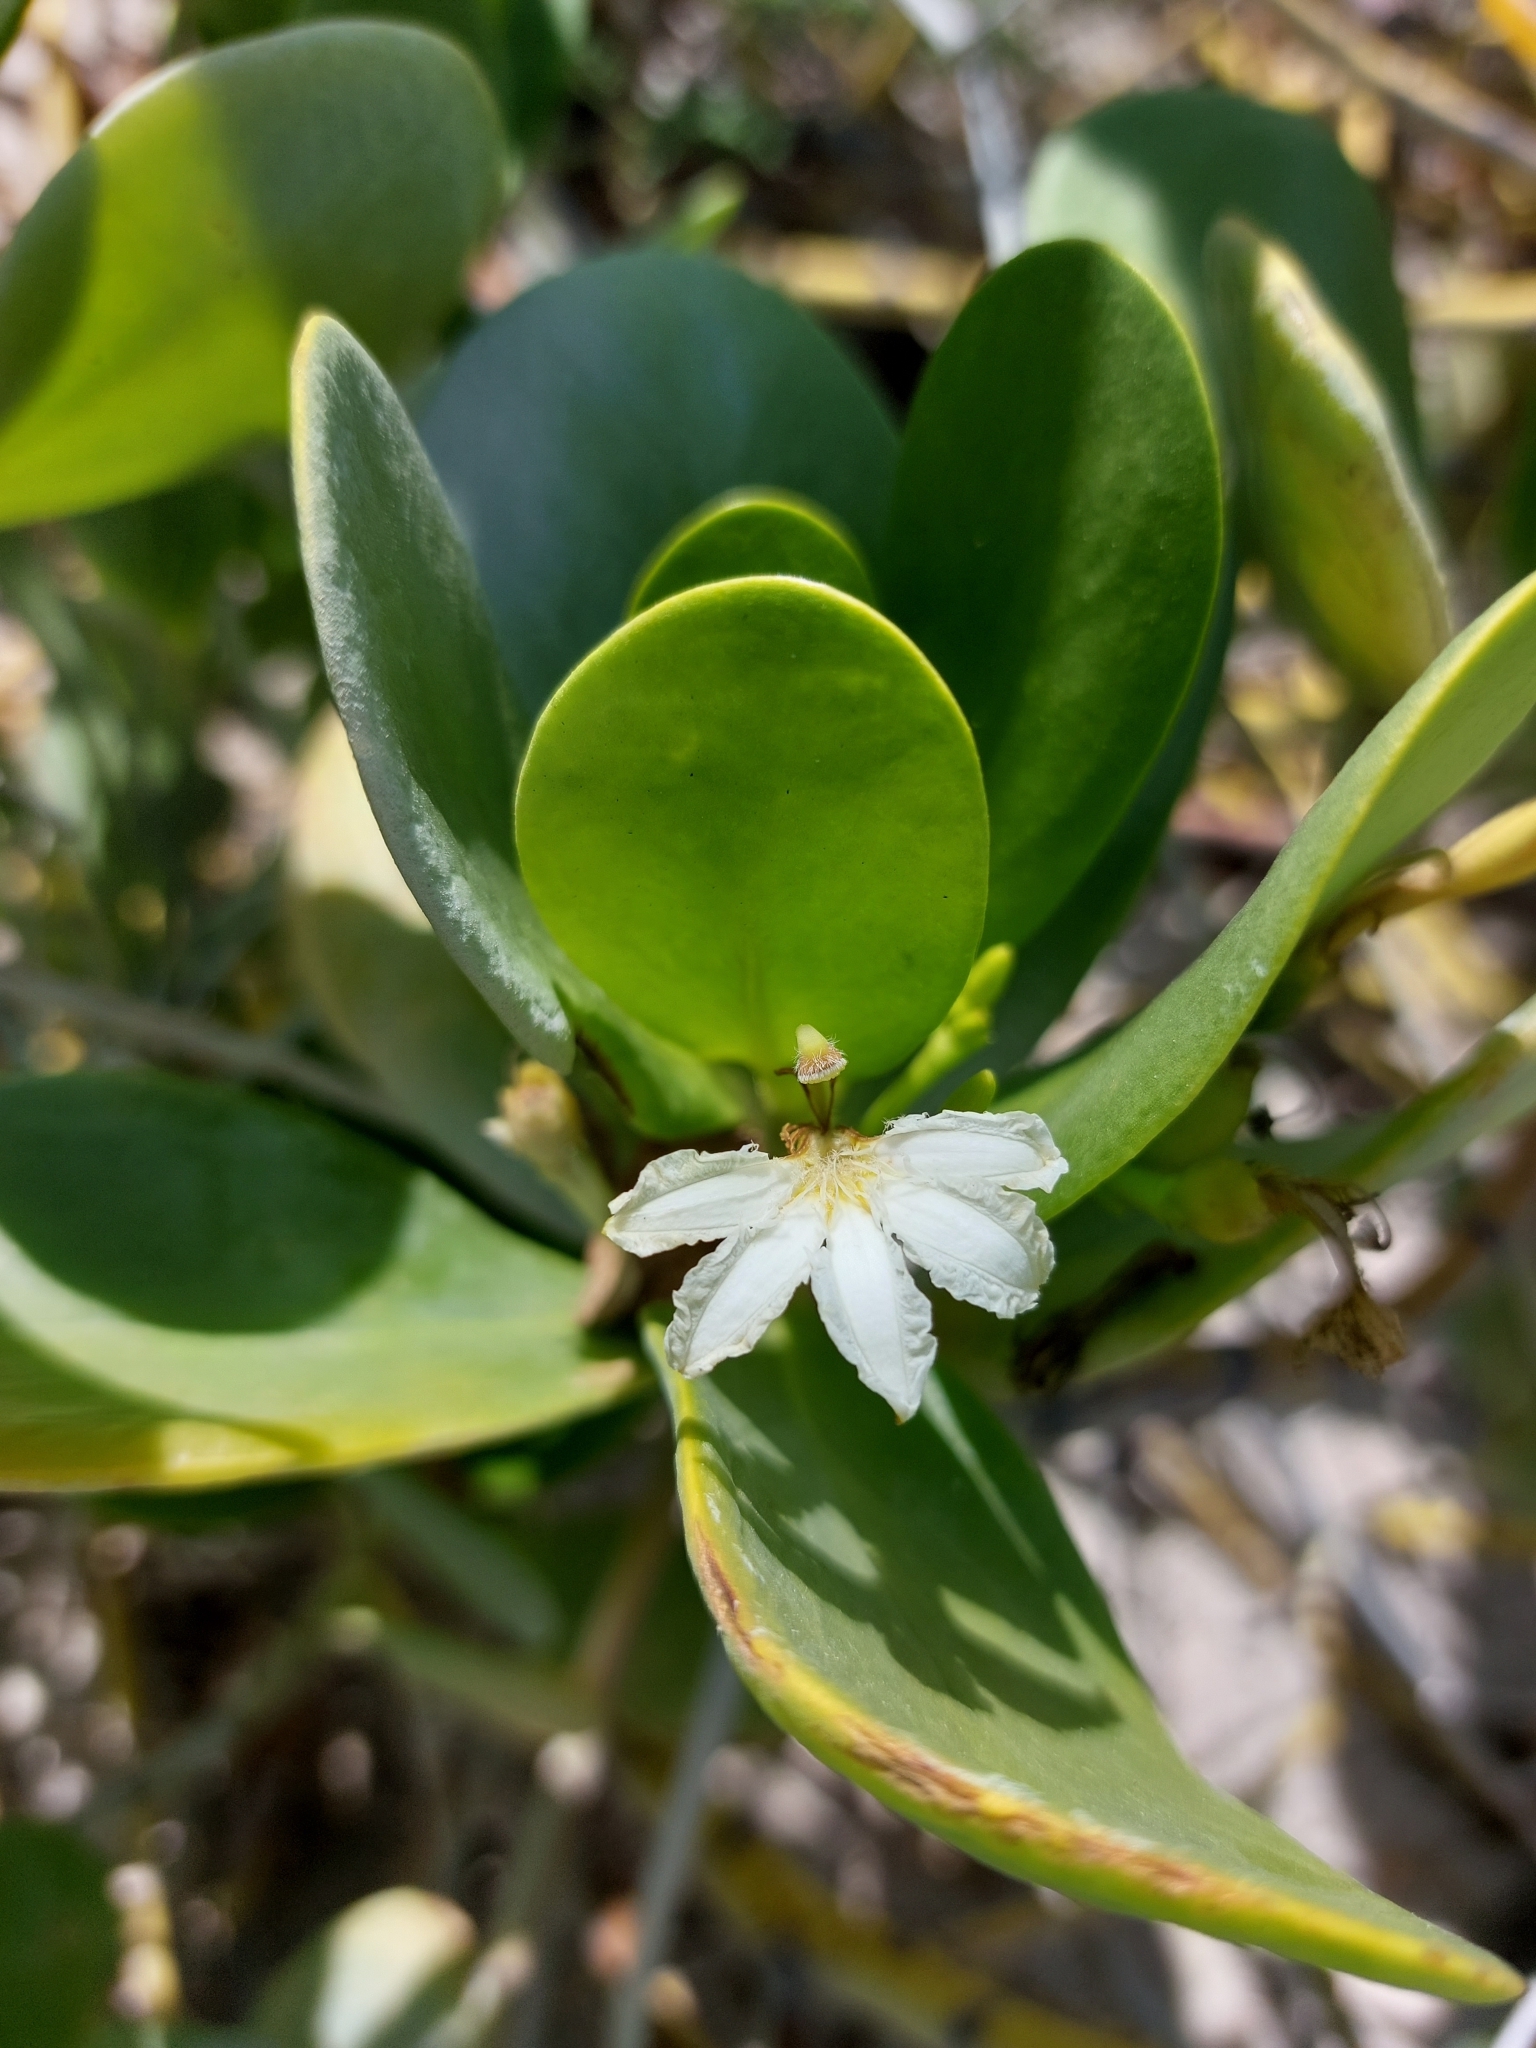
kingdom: Plantae
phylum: Tracheophyta
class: Magnoliopsida
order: Asterales
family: Goodeniaceae
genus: Scaevola
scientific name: Scaevola plumieri
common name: Gull feed
